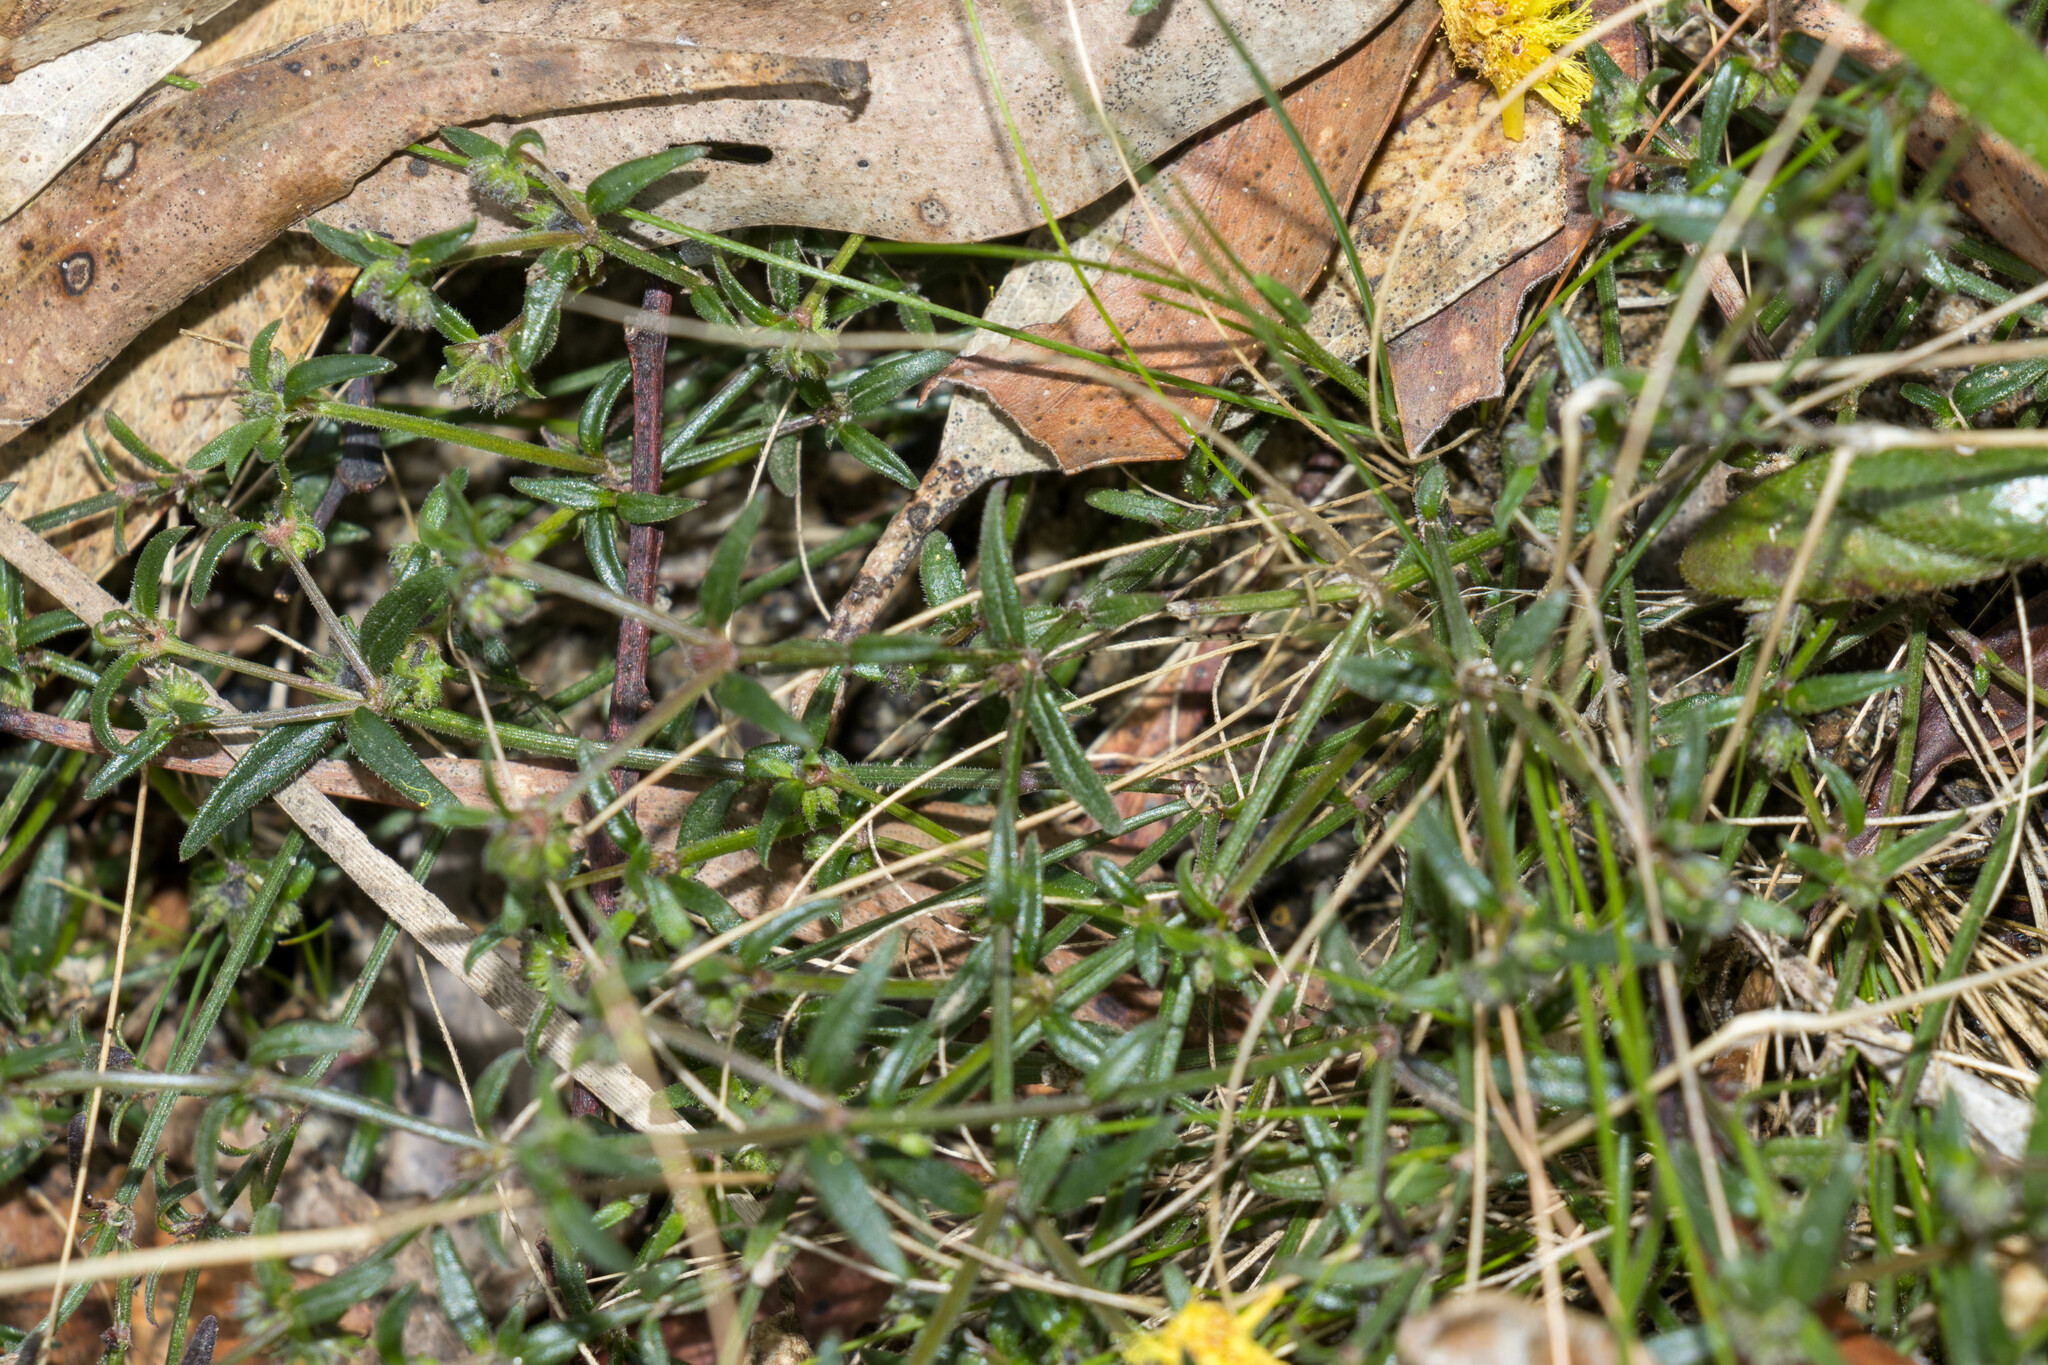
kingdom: Plantae
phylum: Tracheophyta
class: Magnoliopsida
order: Asterales
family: Goodeniaceae
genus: Goodenia
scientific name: Goodenia geniculata
